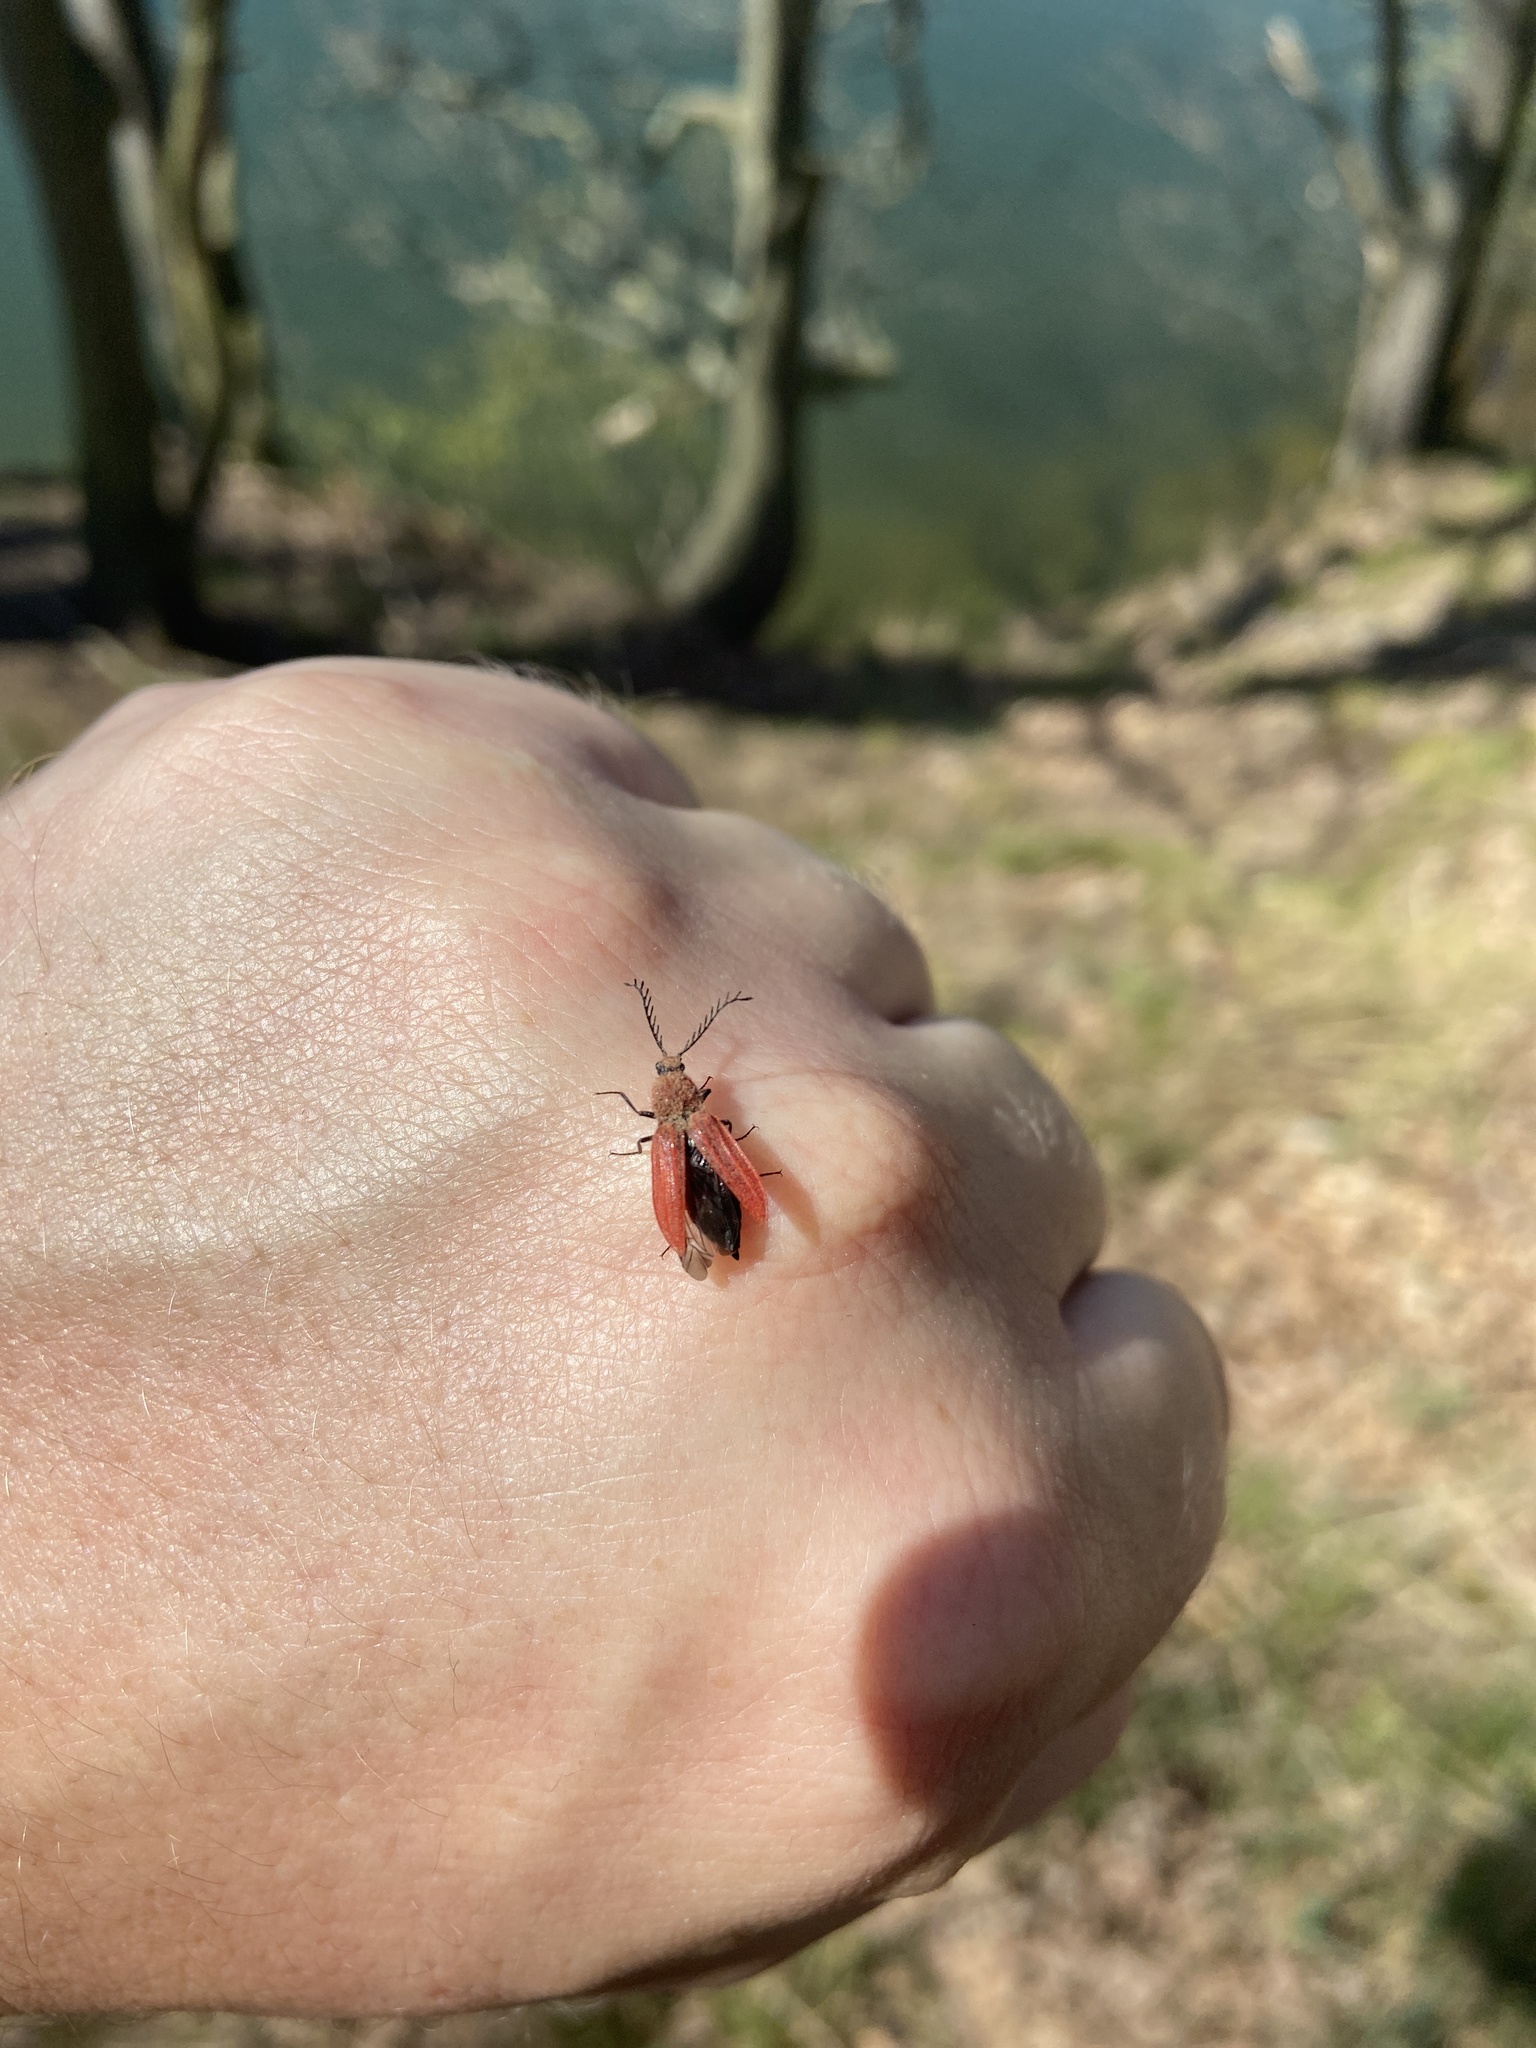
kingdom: Animalia
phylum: Arthropoda
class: Insecta
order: Coleoptera
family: Elateridae
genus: Anostirus
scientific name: Anostirus purpureus
